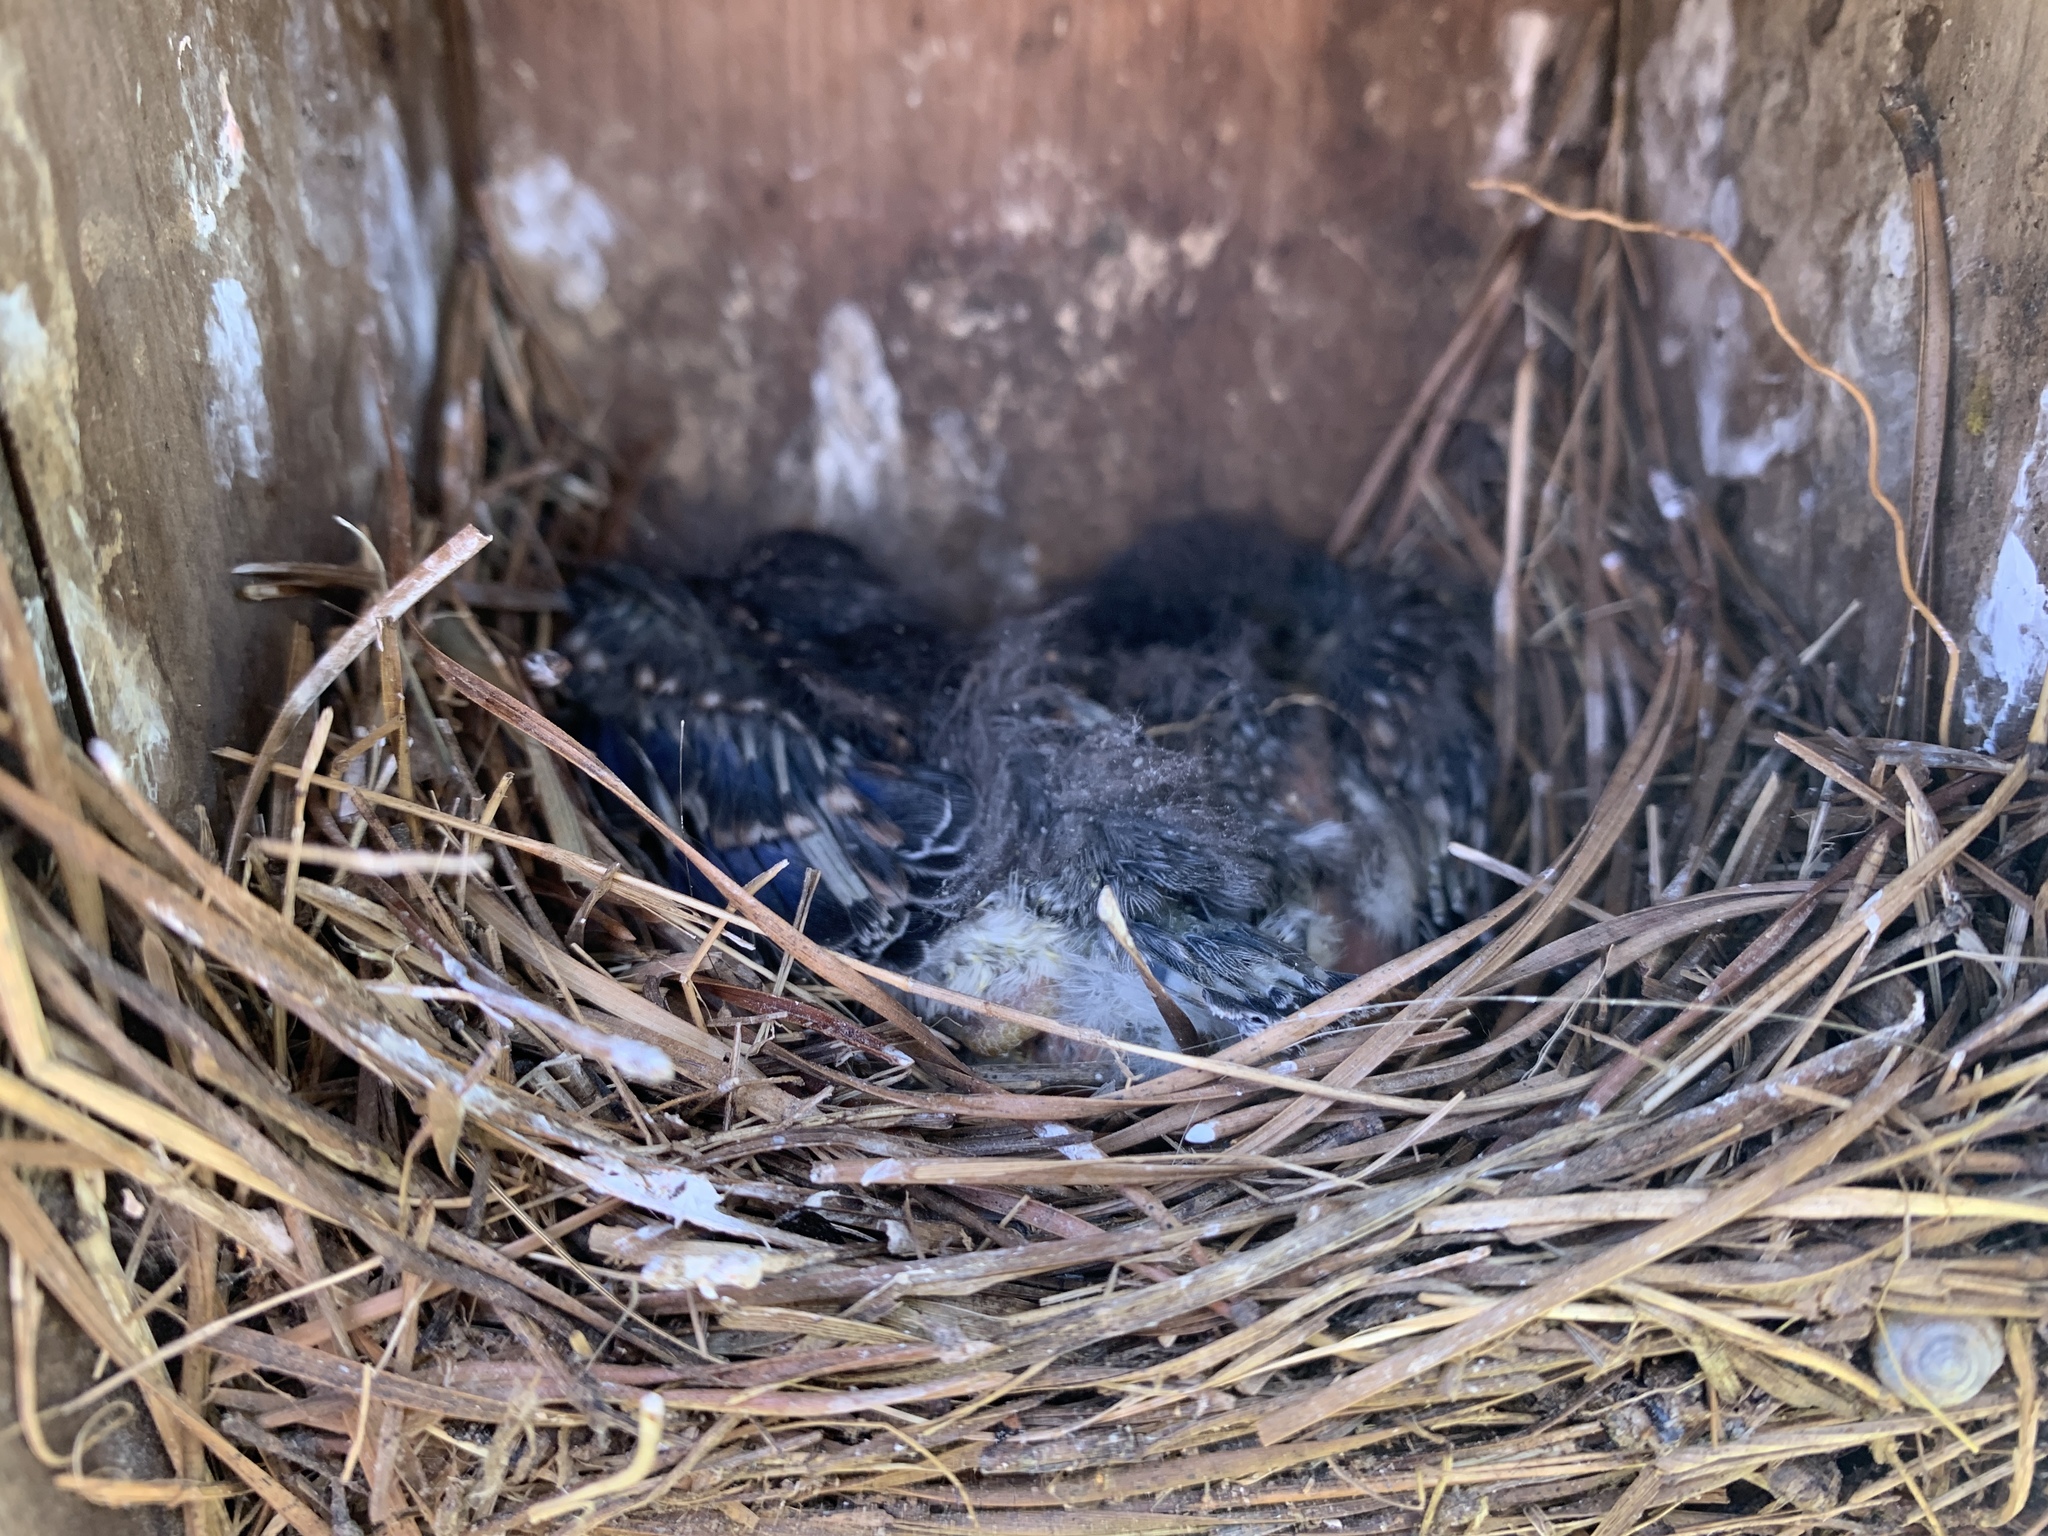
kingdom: Animalia
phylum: Chordata
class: Aves
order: Passeriformes
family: Turdidae
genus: Sialia
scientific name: Sialia sialis
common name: Eastern bluebird
